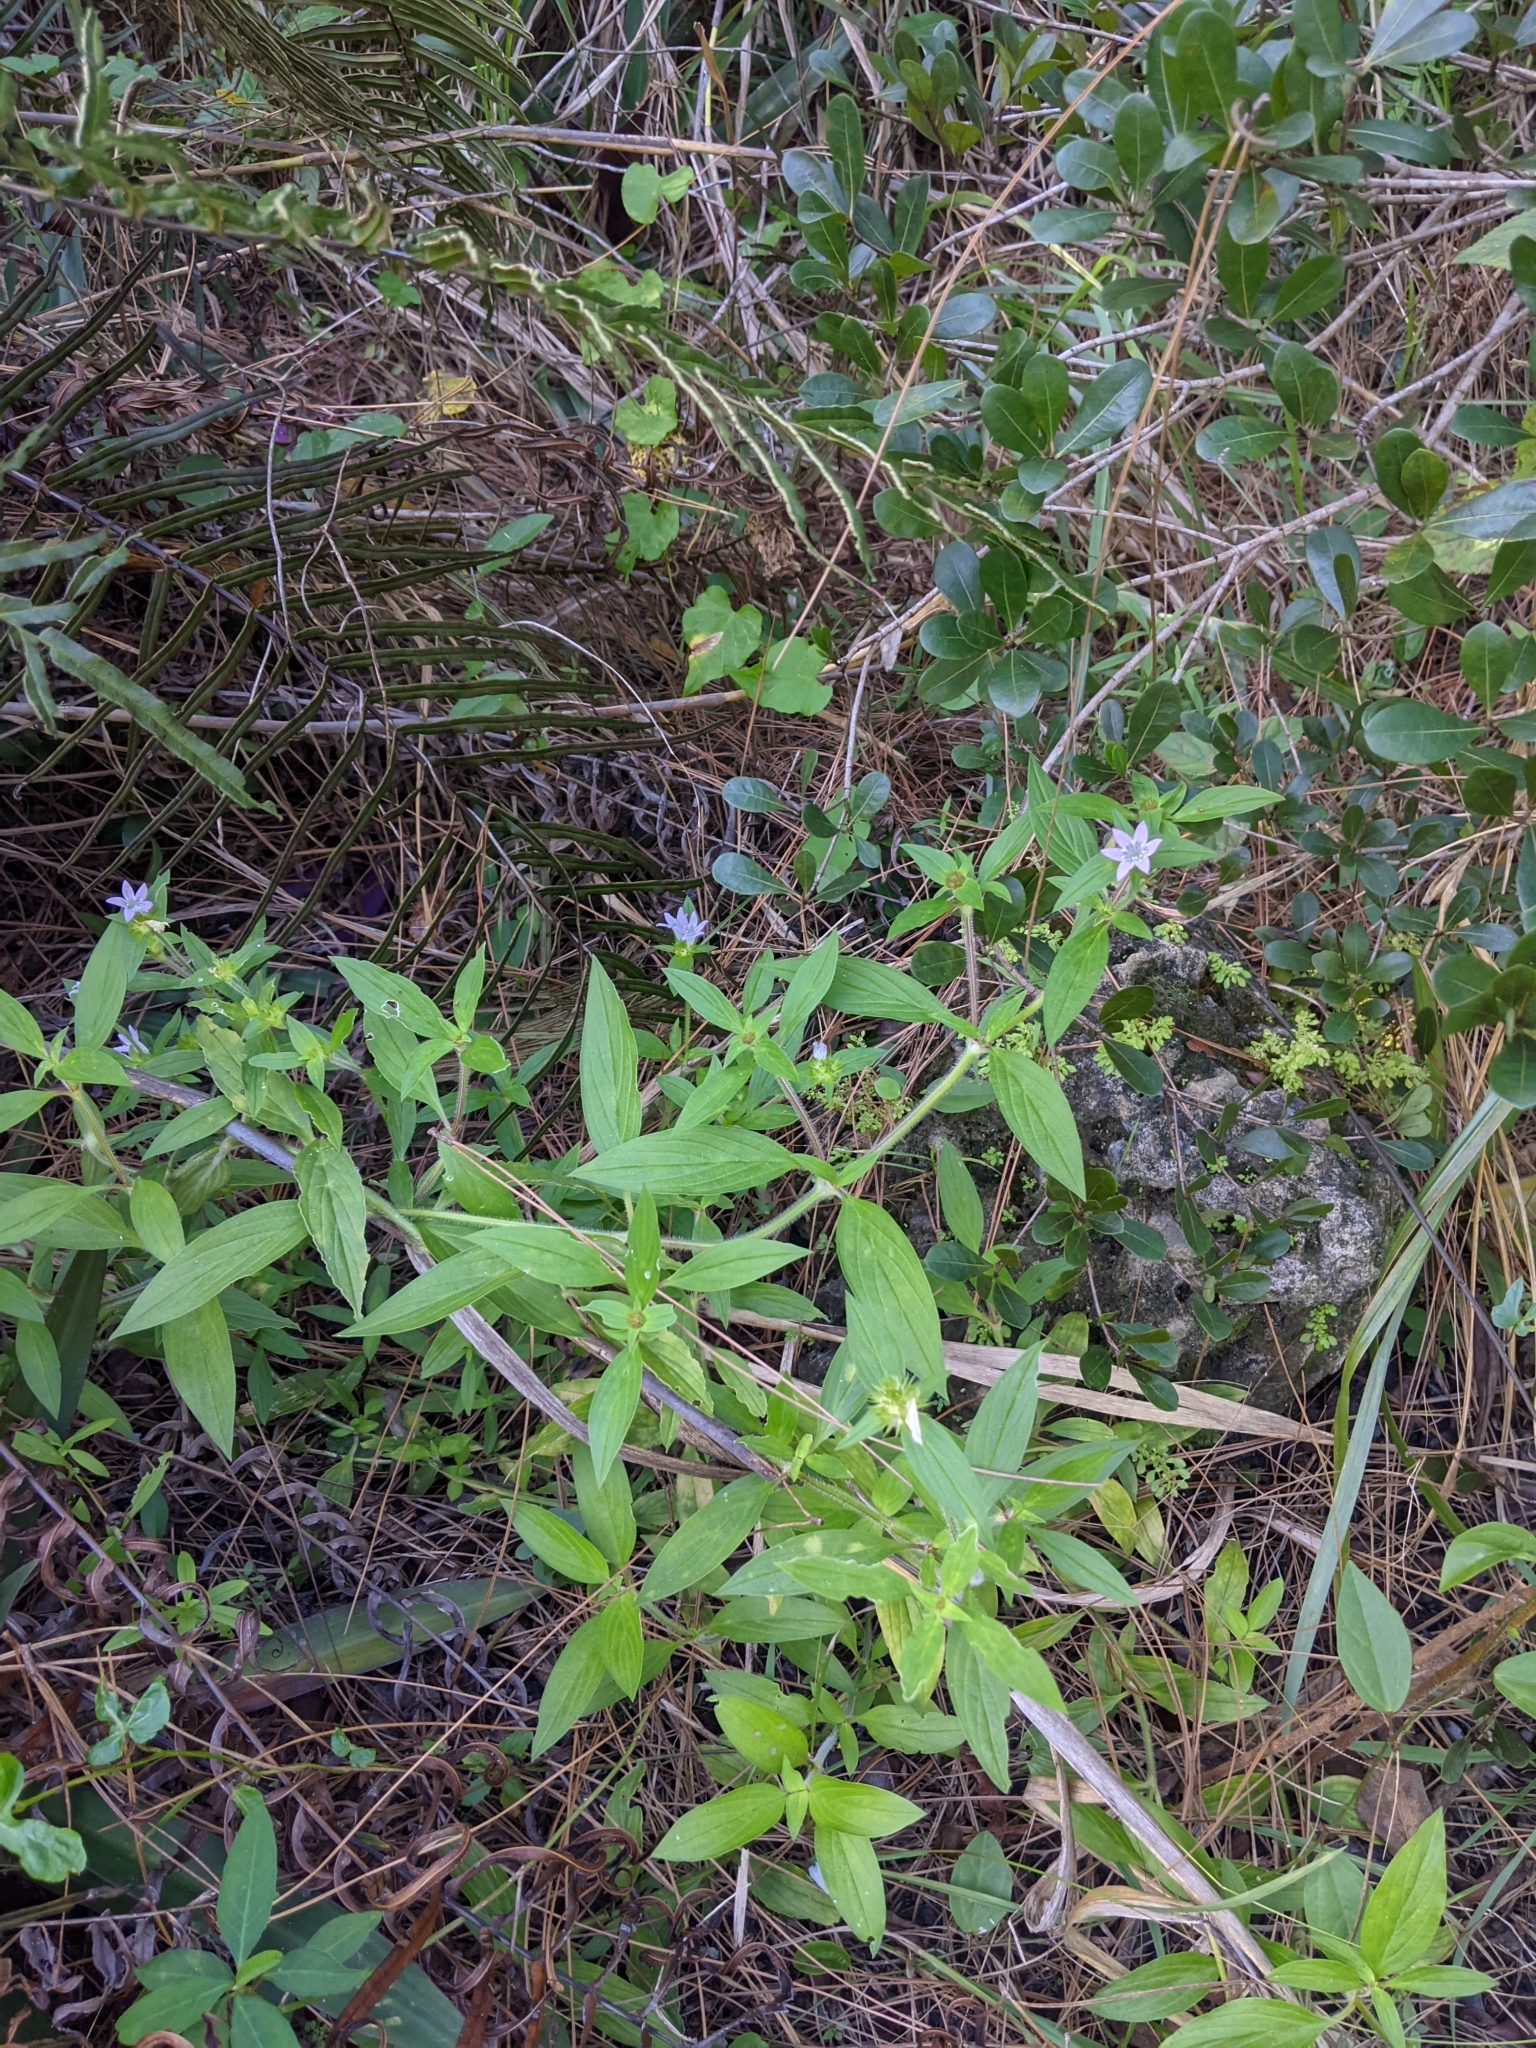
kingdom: Plantae
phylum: Tracheophyta
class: Magnoliopsida
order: Gentianales
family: Rubiaceae
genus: Richardia
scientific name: Richardia grandiflora
